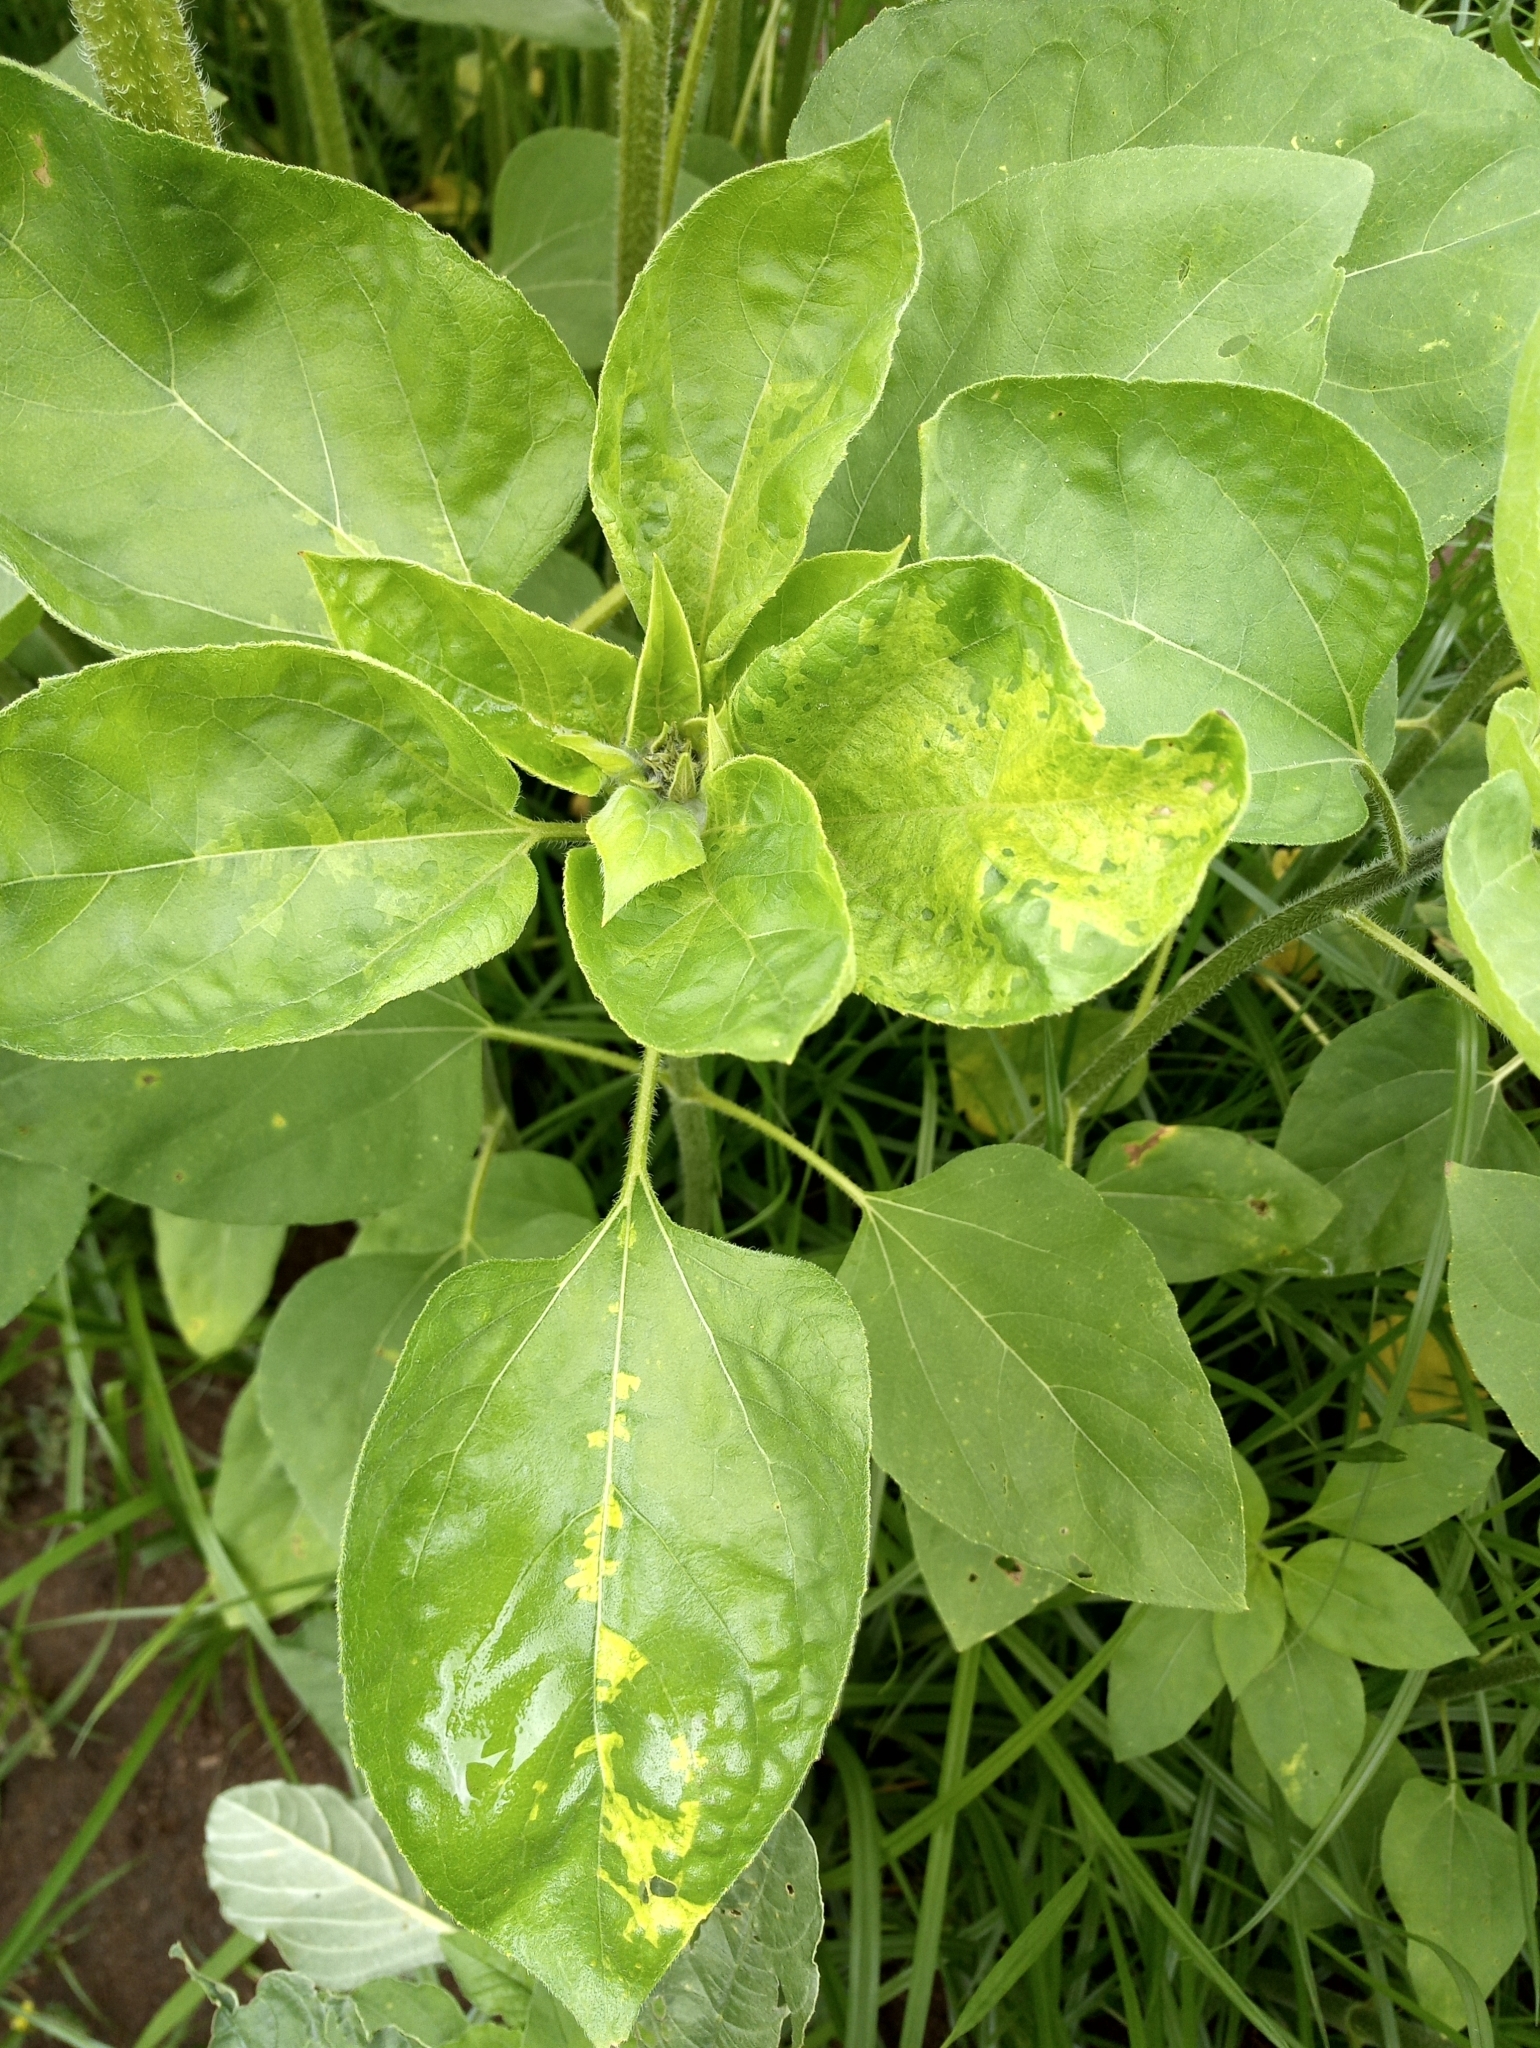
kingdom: Chromista
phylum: Oomycota
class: Peronosporea
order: Peronosporales
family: Peronosporaceae
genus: Plasmopara
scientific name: Plasmopara halstedii
